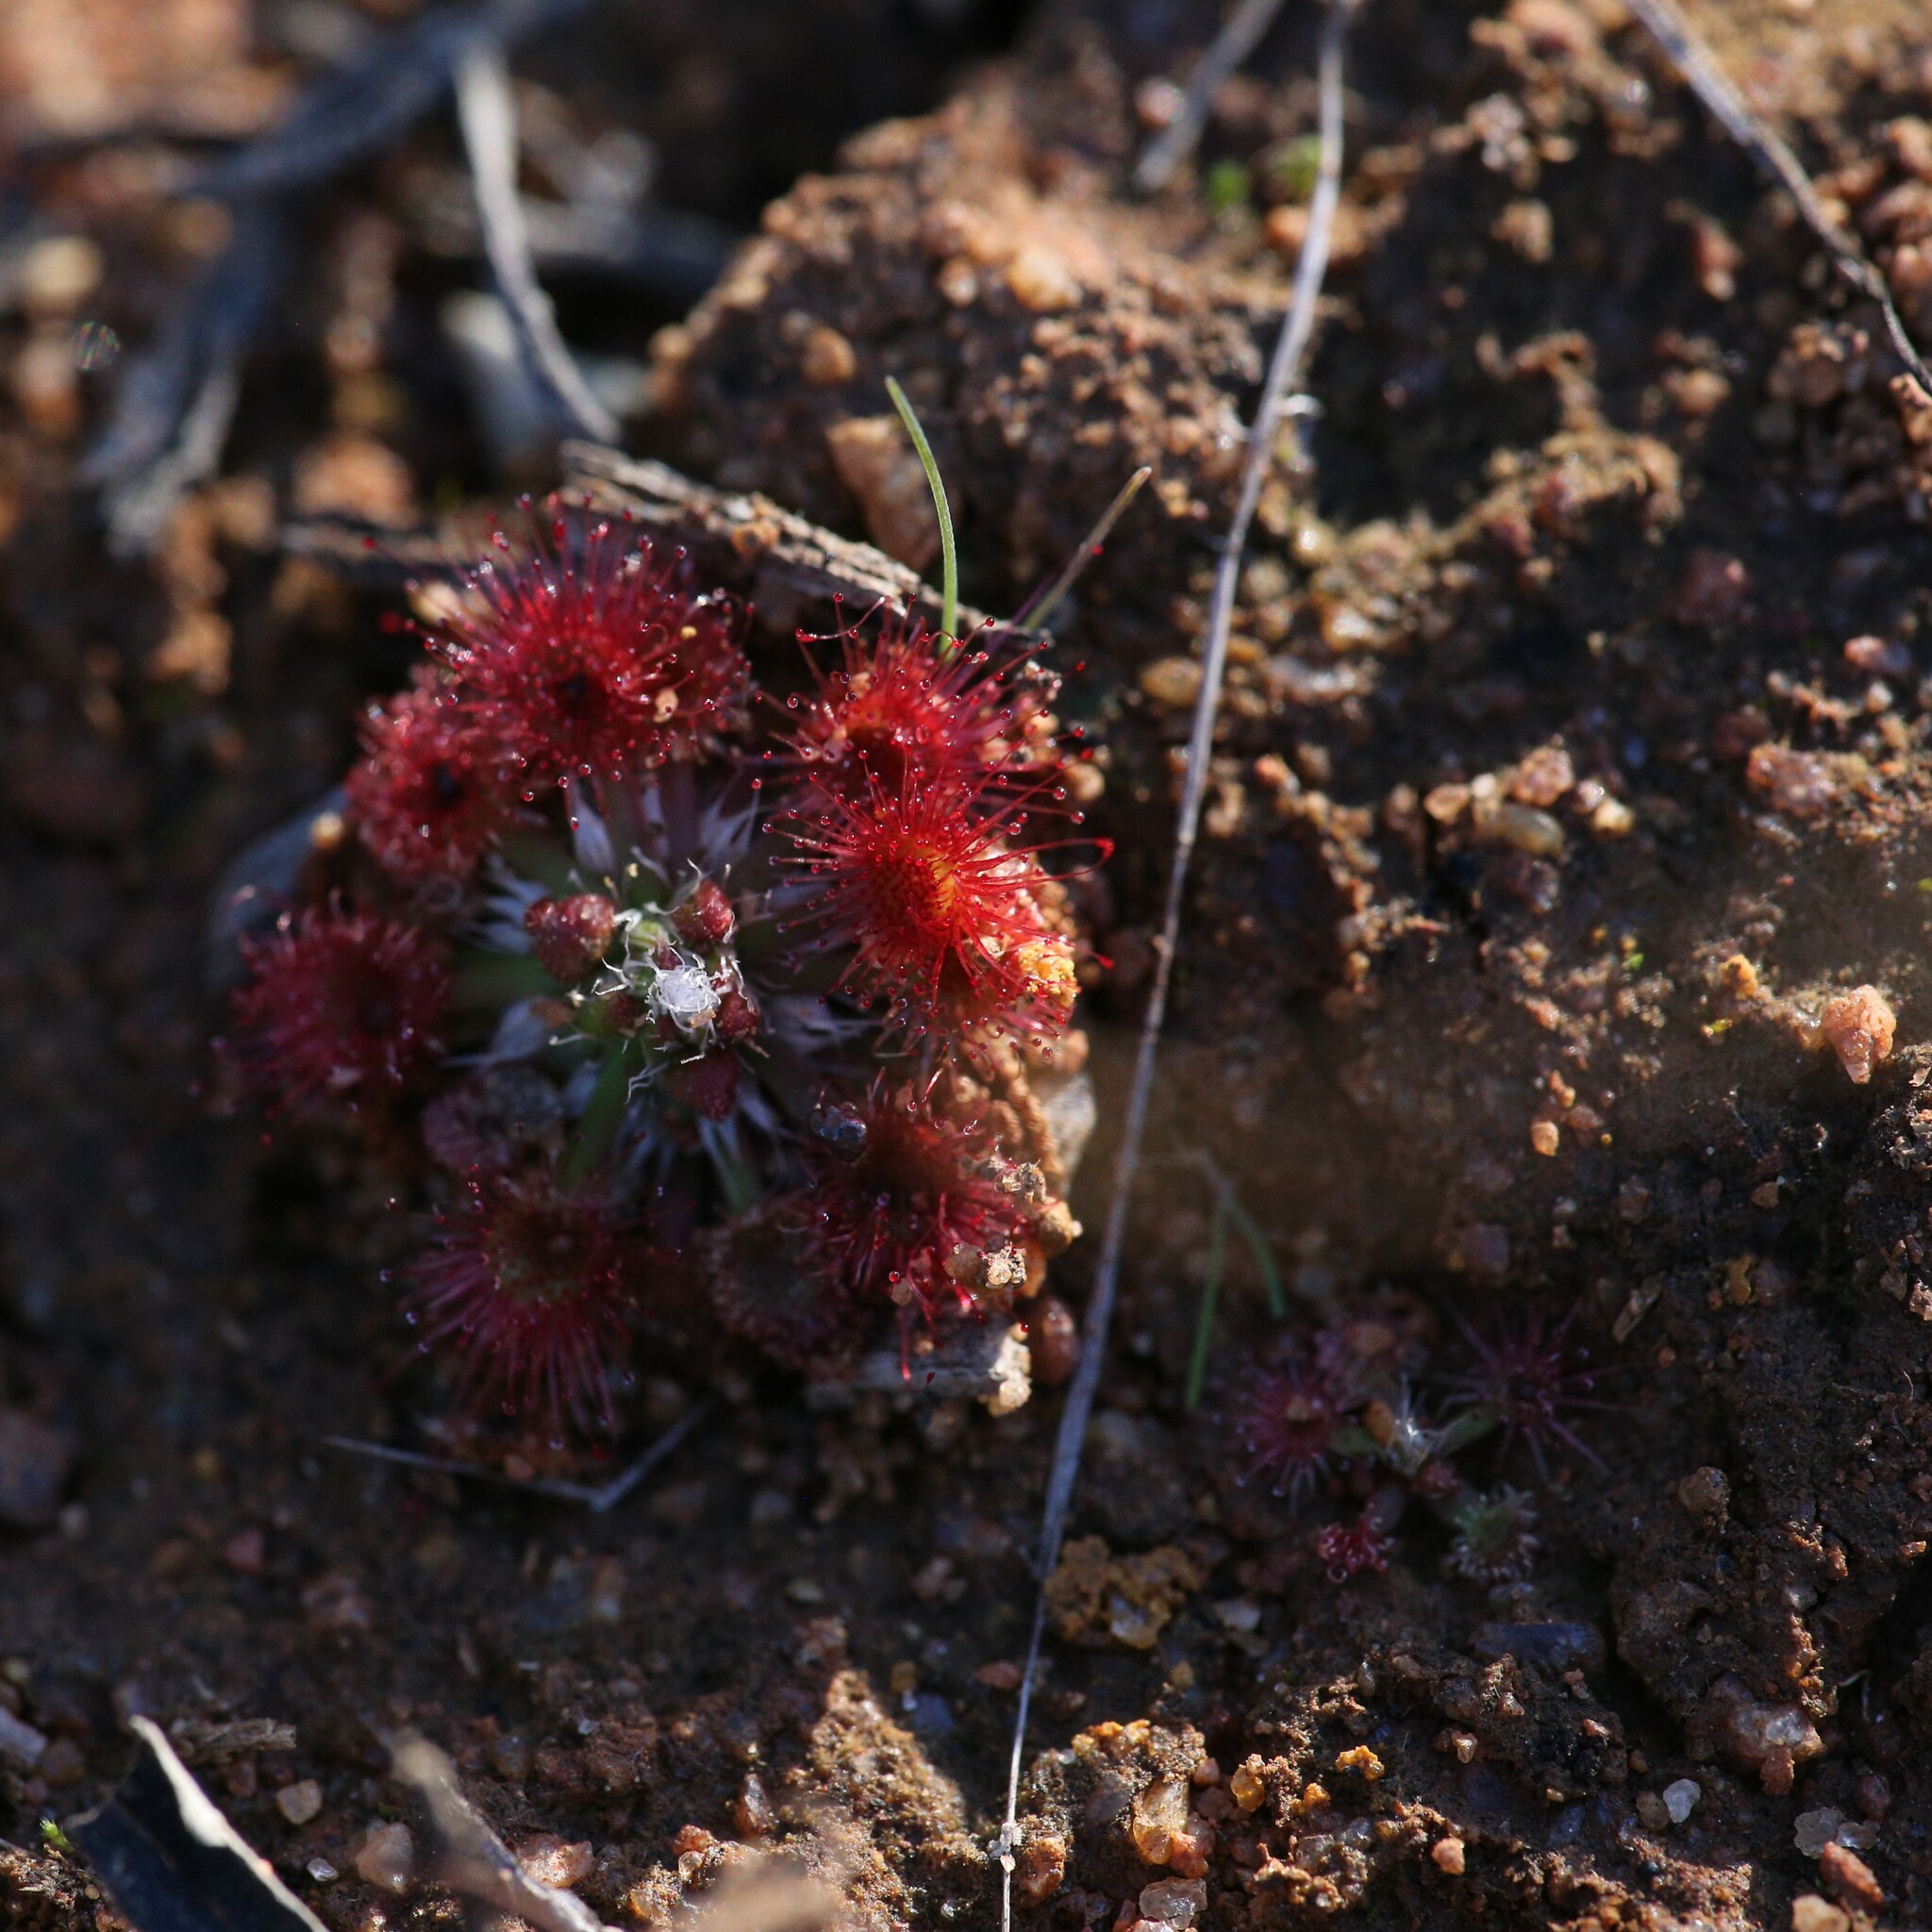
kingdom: Plantae
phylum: Tracheophyta
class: Magnoliopsida
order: Caryophyllales
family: Droseraceae
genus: Drosera
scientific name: Drosera spilos
